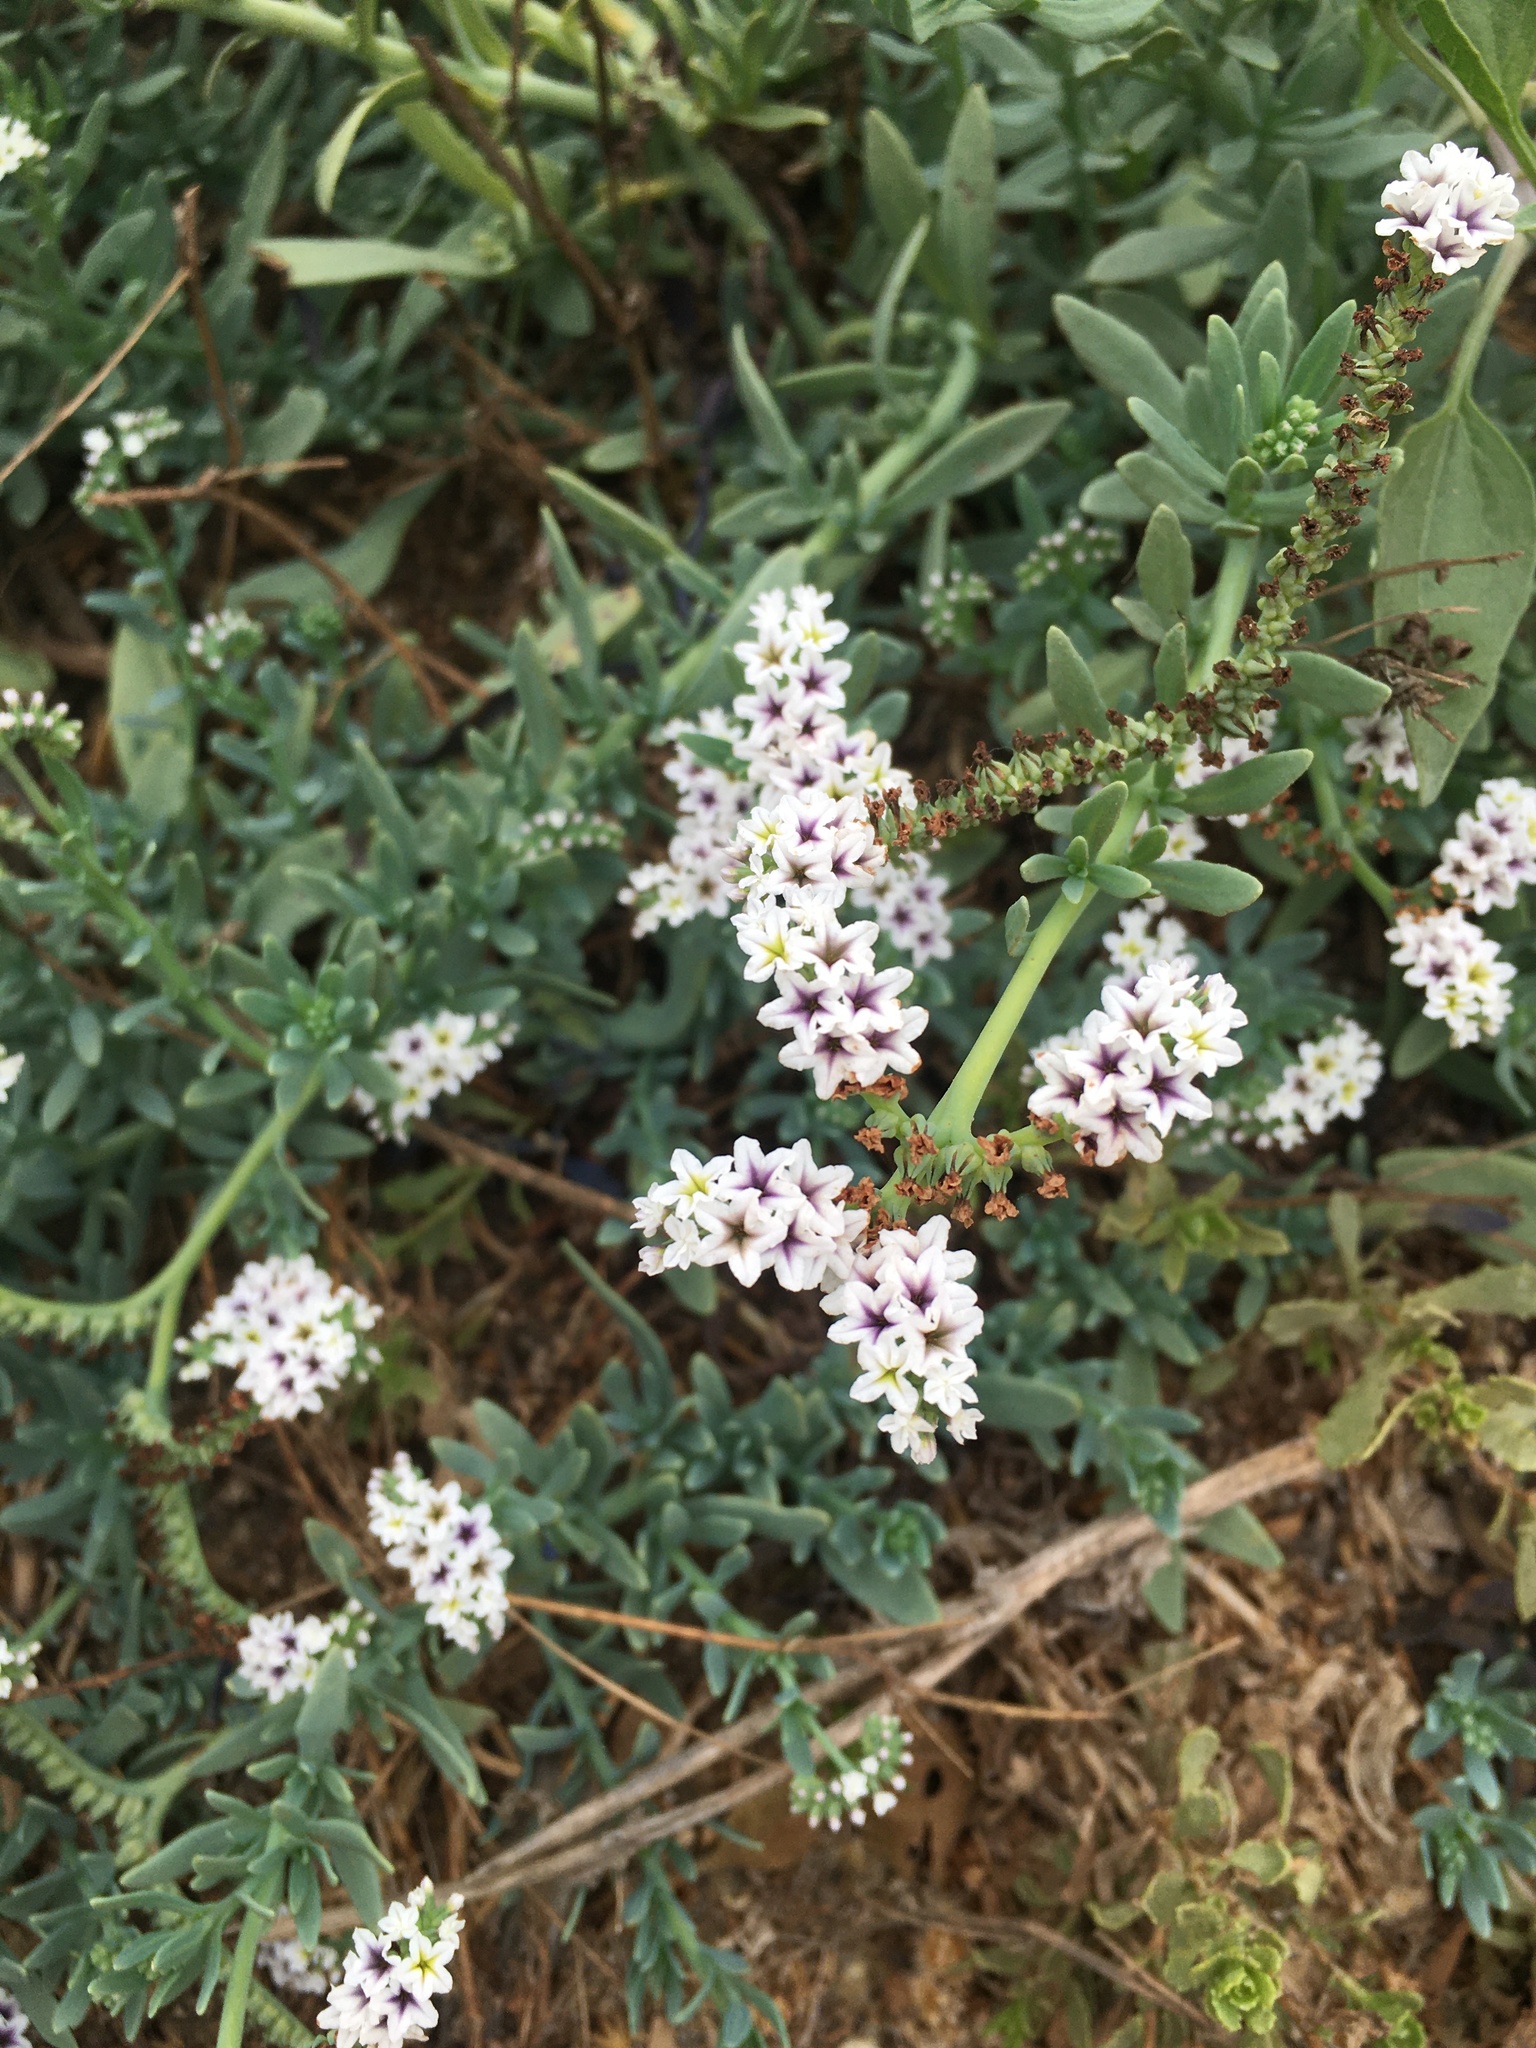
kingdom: Plantae
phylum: Tracheophyta
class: Magnoliopsida
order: Boraginales
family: Heliotropiaceae
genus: Heliotropium
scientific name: Heliotropium curassavicum
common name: Seaside heliotrope
